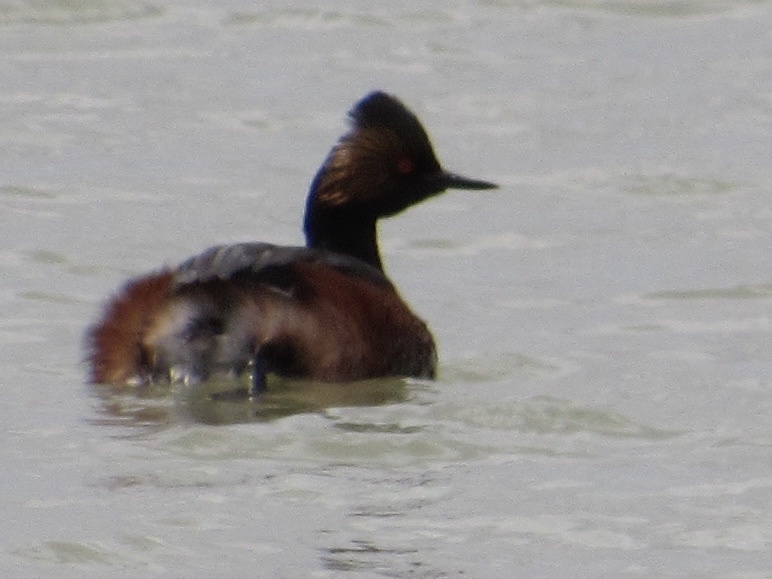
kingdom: Animalia
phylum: Chordata
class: Aves
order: Podicipediformes
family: Podicipedidae
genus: Podiceps
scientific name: Podiceps nigricollis
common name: Black-necked grebe
